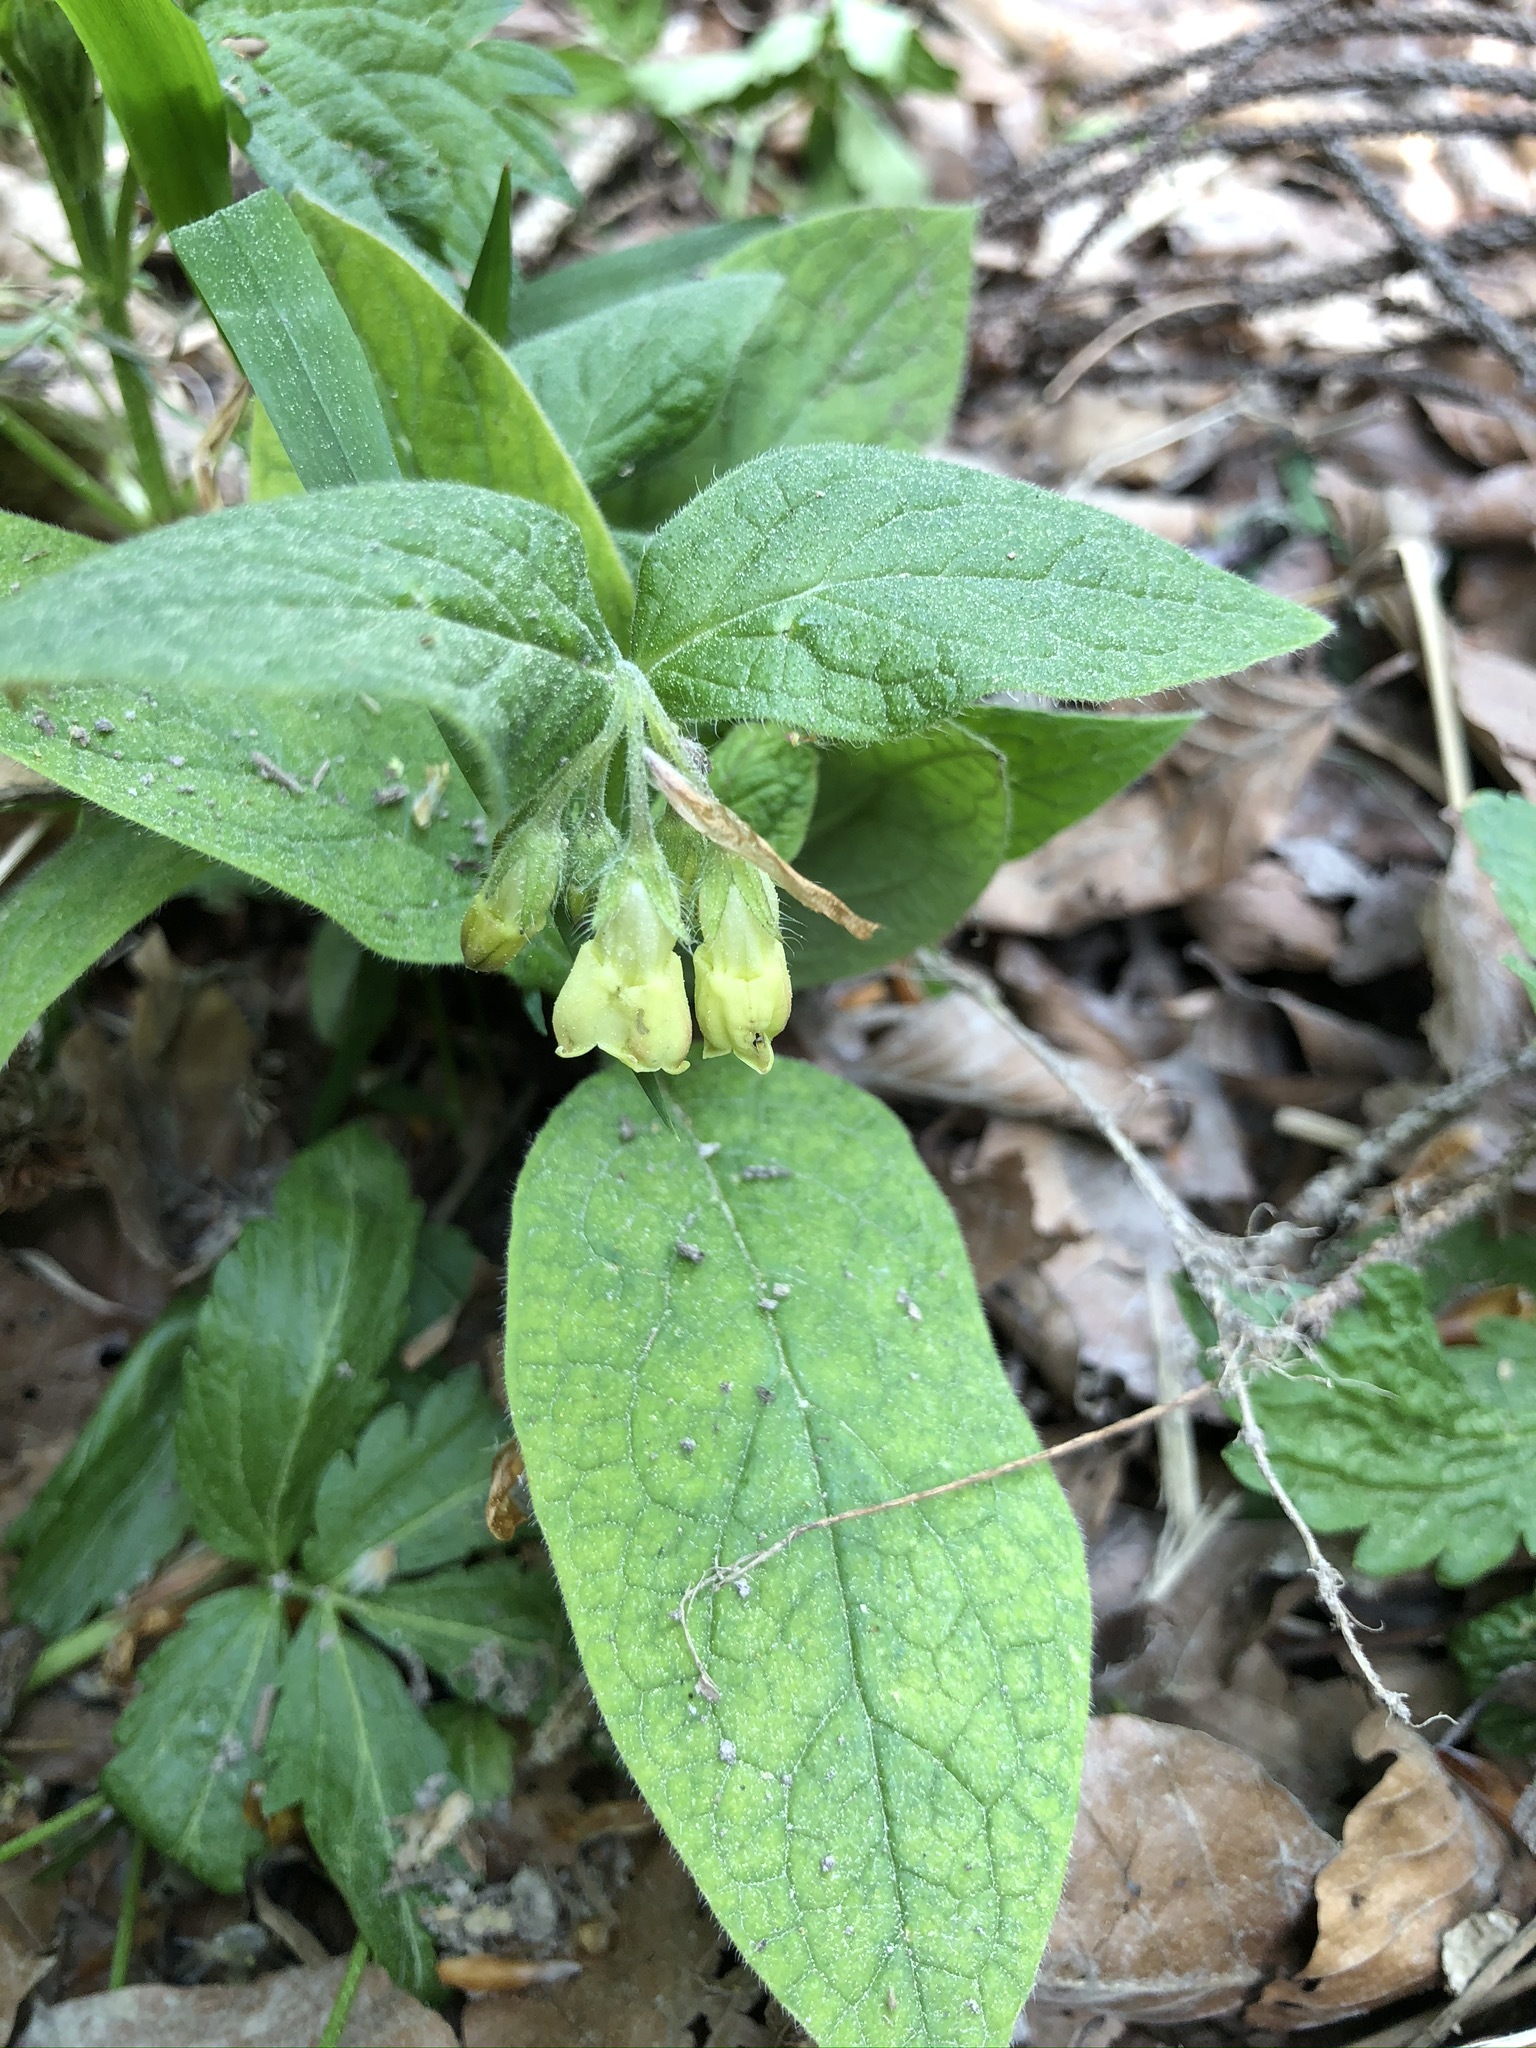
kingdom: Plantae
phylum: Tracheophyta
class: Magnoliopsida
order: Boraginales
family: Boraginaceae
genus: Symphytum
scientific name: Symphytum tuberosum
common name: Tuberous comfrey
